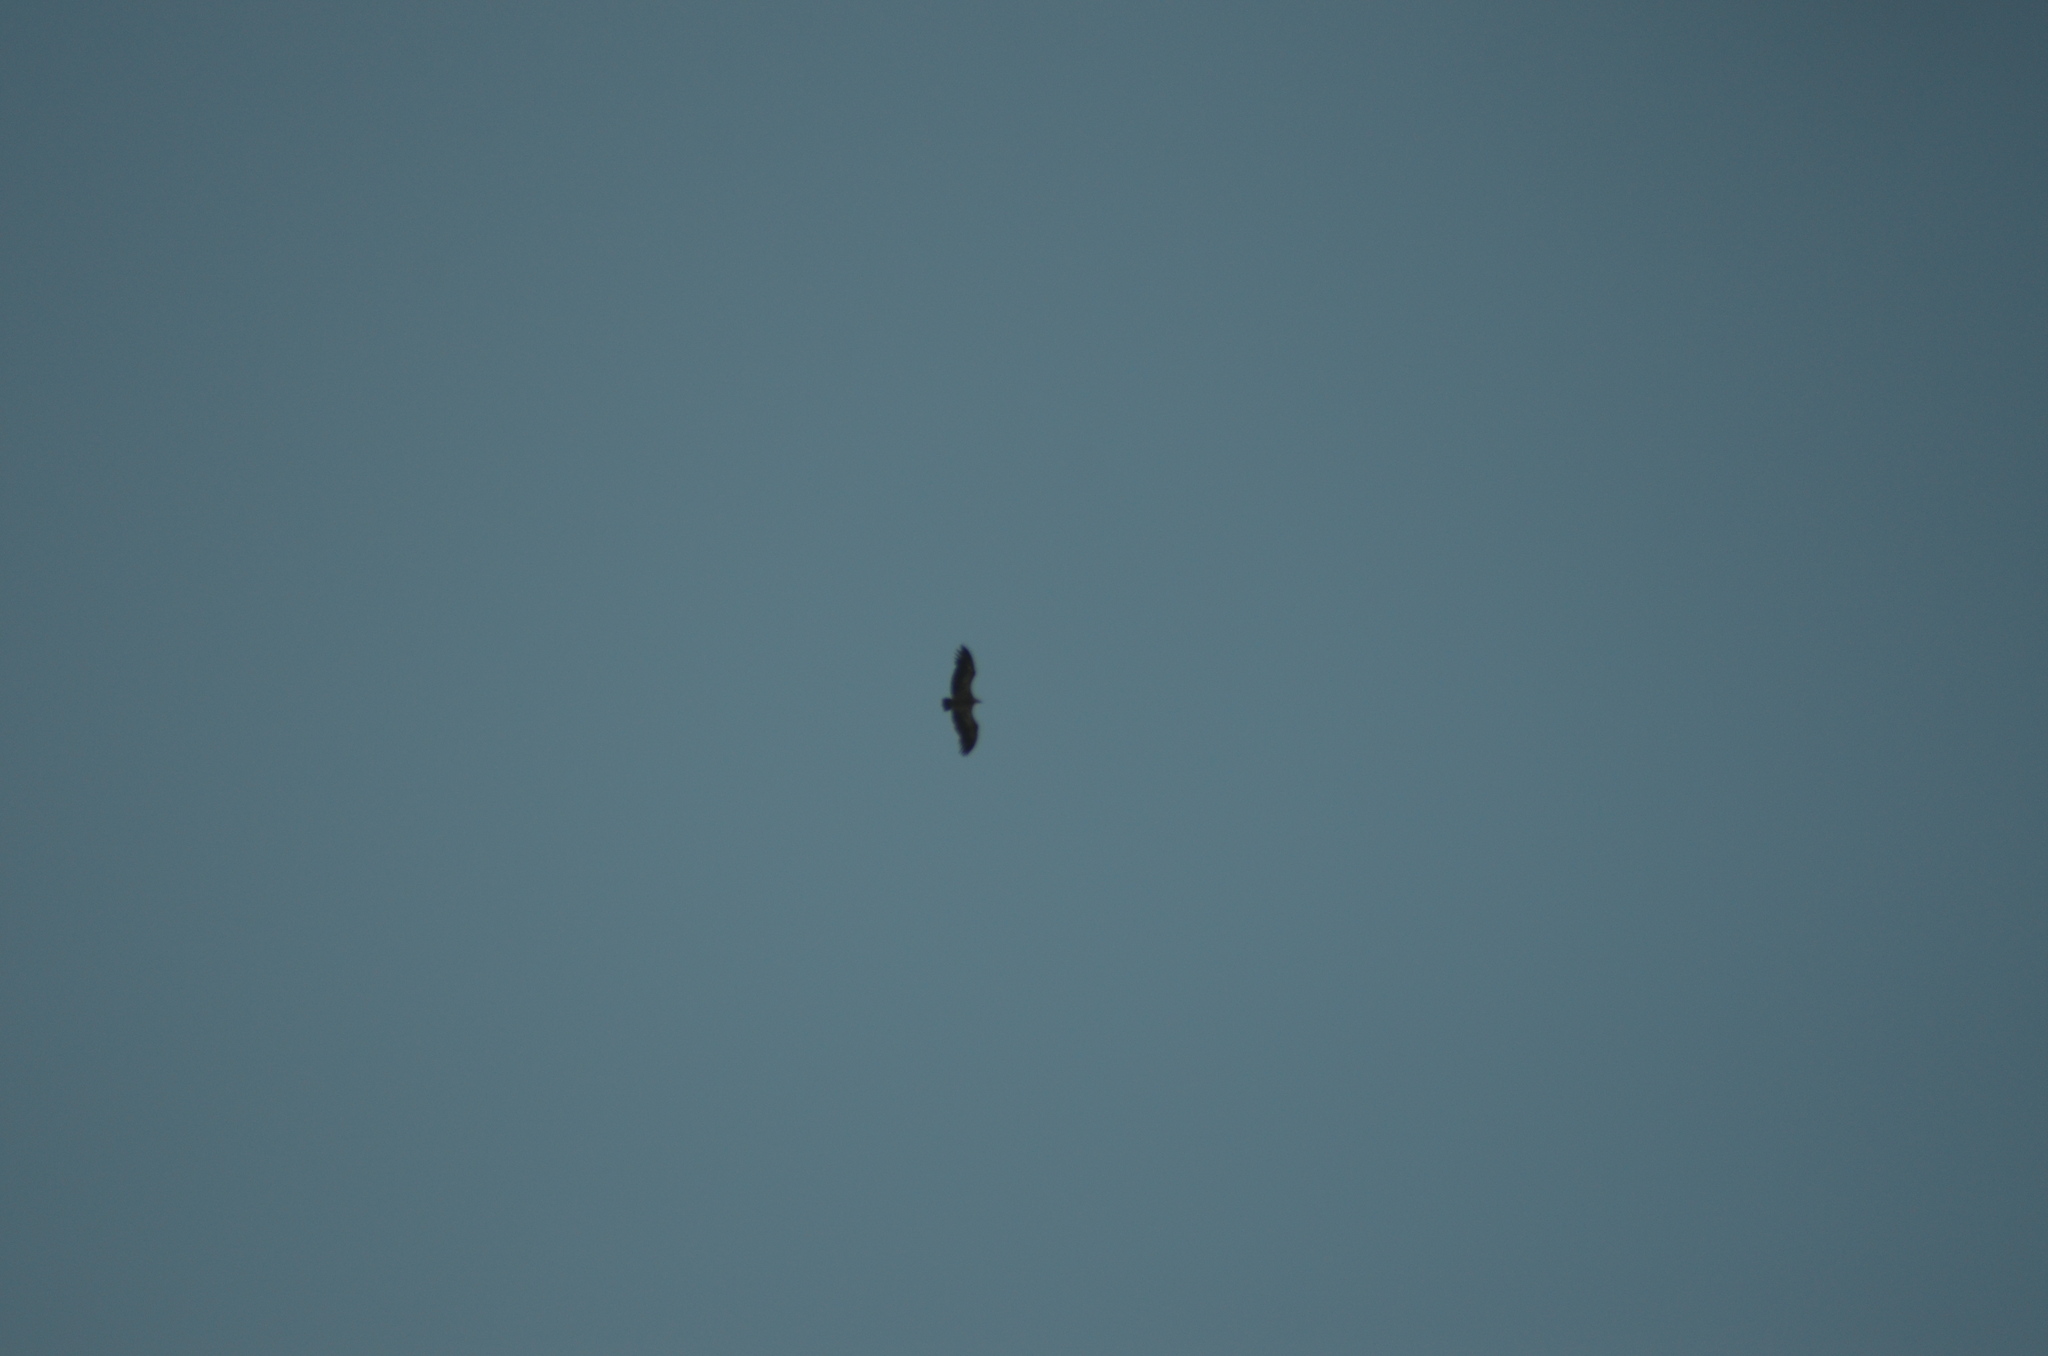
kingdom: Animalia
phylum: Chordata
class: Aves
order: Accipitriformes
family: Accipitridae
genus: Gyps
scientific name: Gyps fulvus
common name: Griffon vulture
